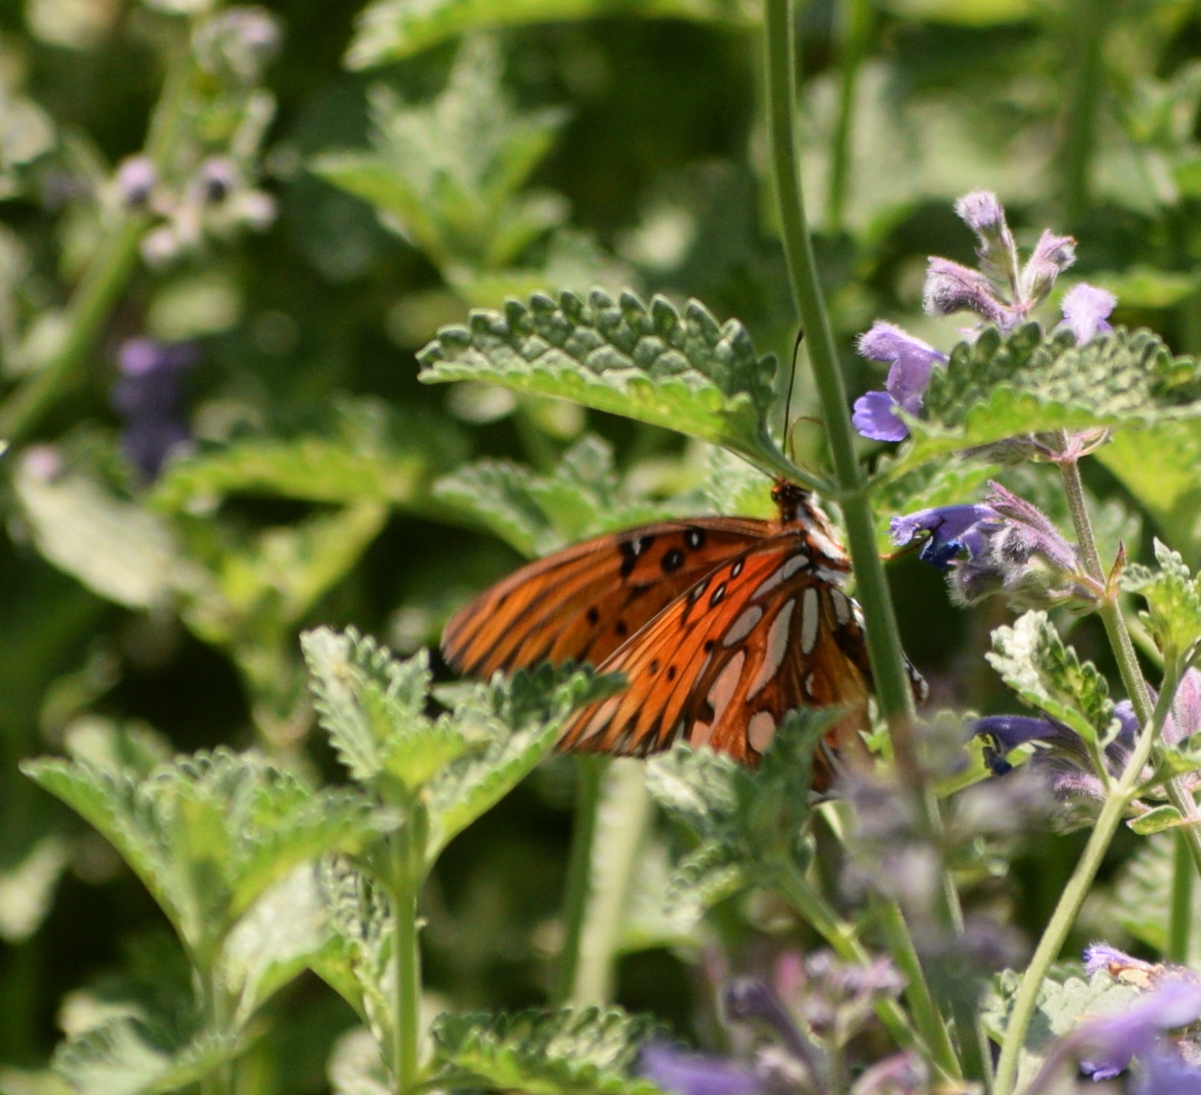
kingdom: Animalia
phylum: Arthropoda
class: Insecta
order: Lepidoptera
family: Nymphalidae
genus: Dione
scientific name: Dione vanillae
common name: Gulf fritillary
